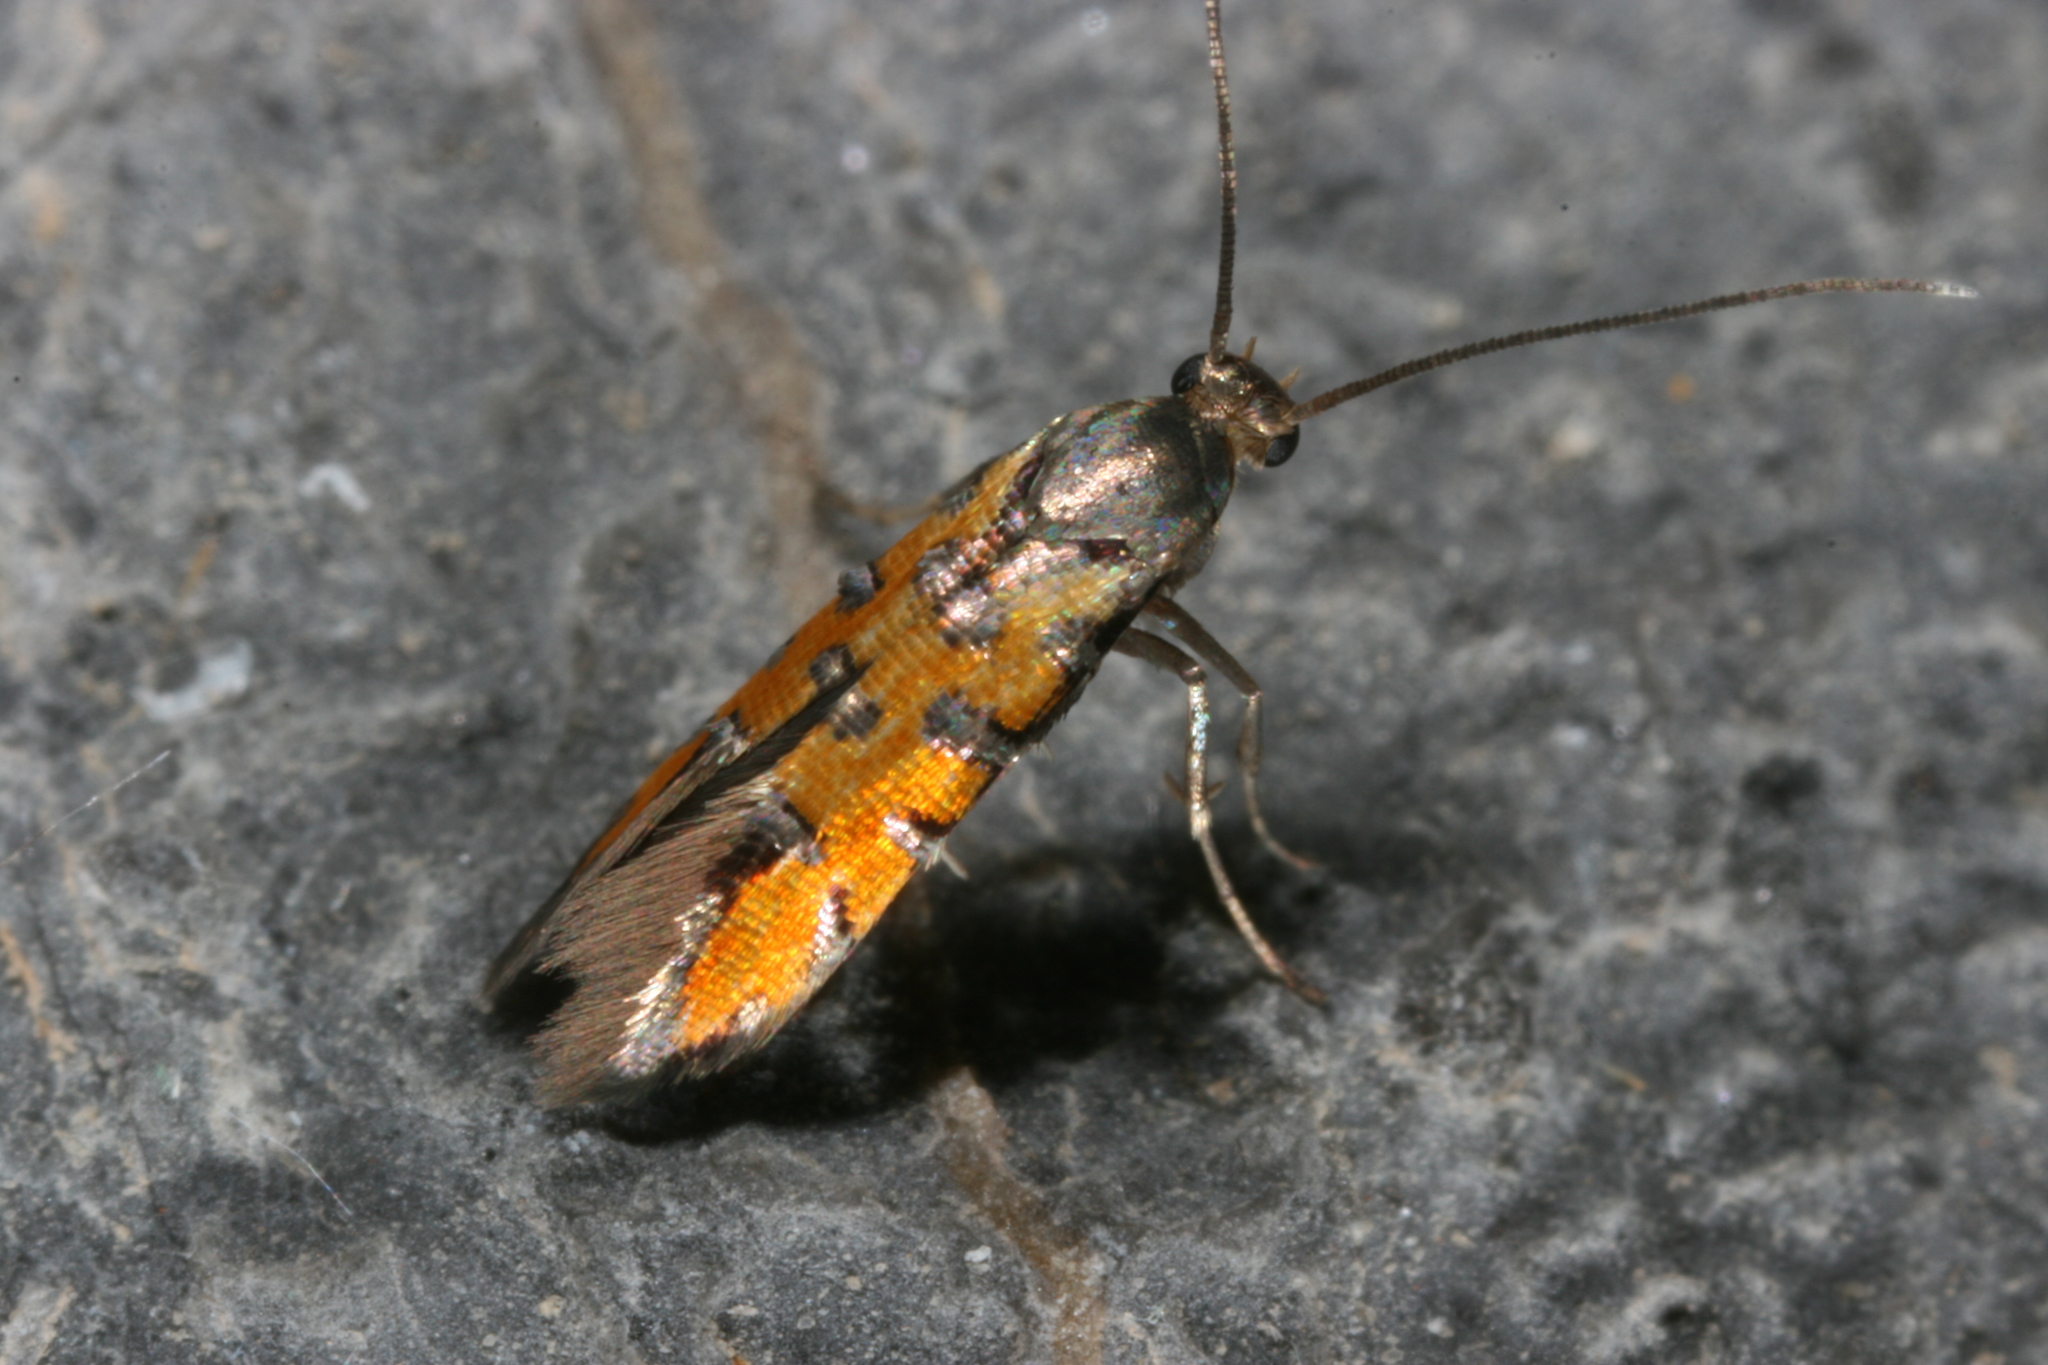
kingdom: Animalia
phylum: Arthropoda
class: Insecta
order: Lepidoptera
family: Heliodinidae
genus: Neoheliodines
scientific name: Neoheliodines
